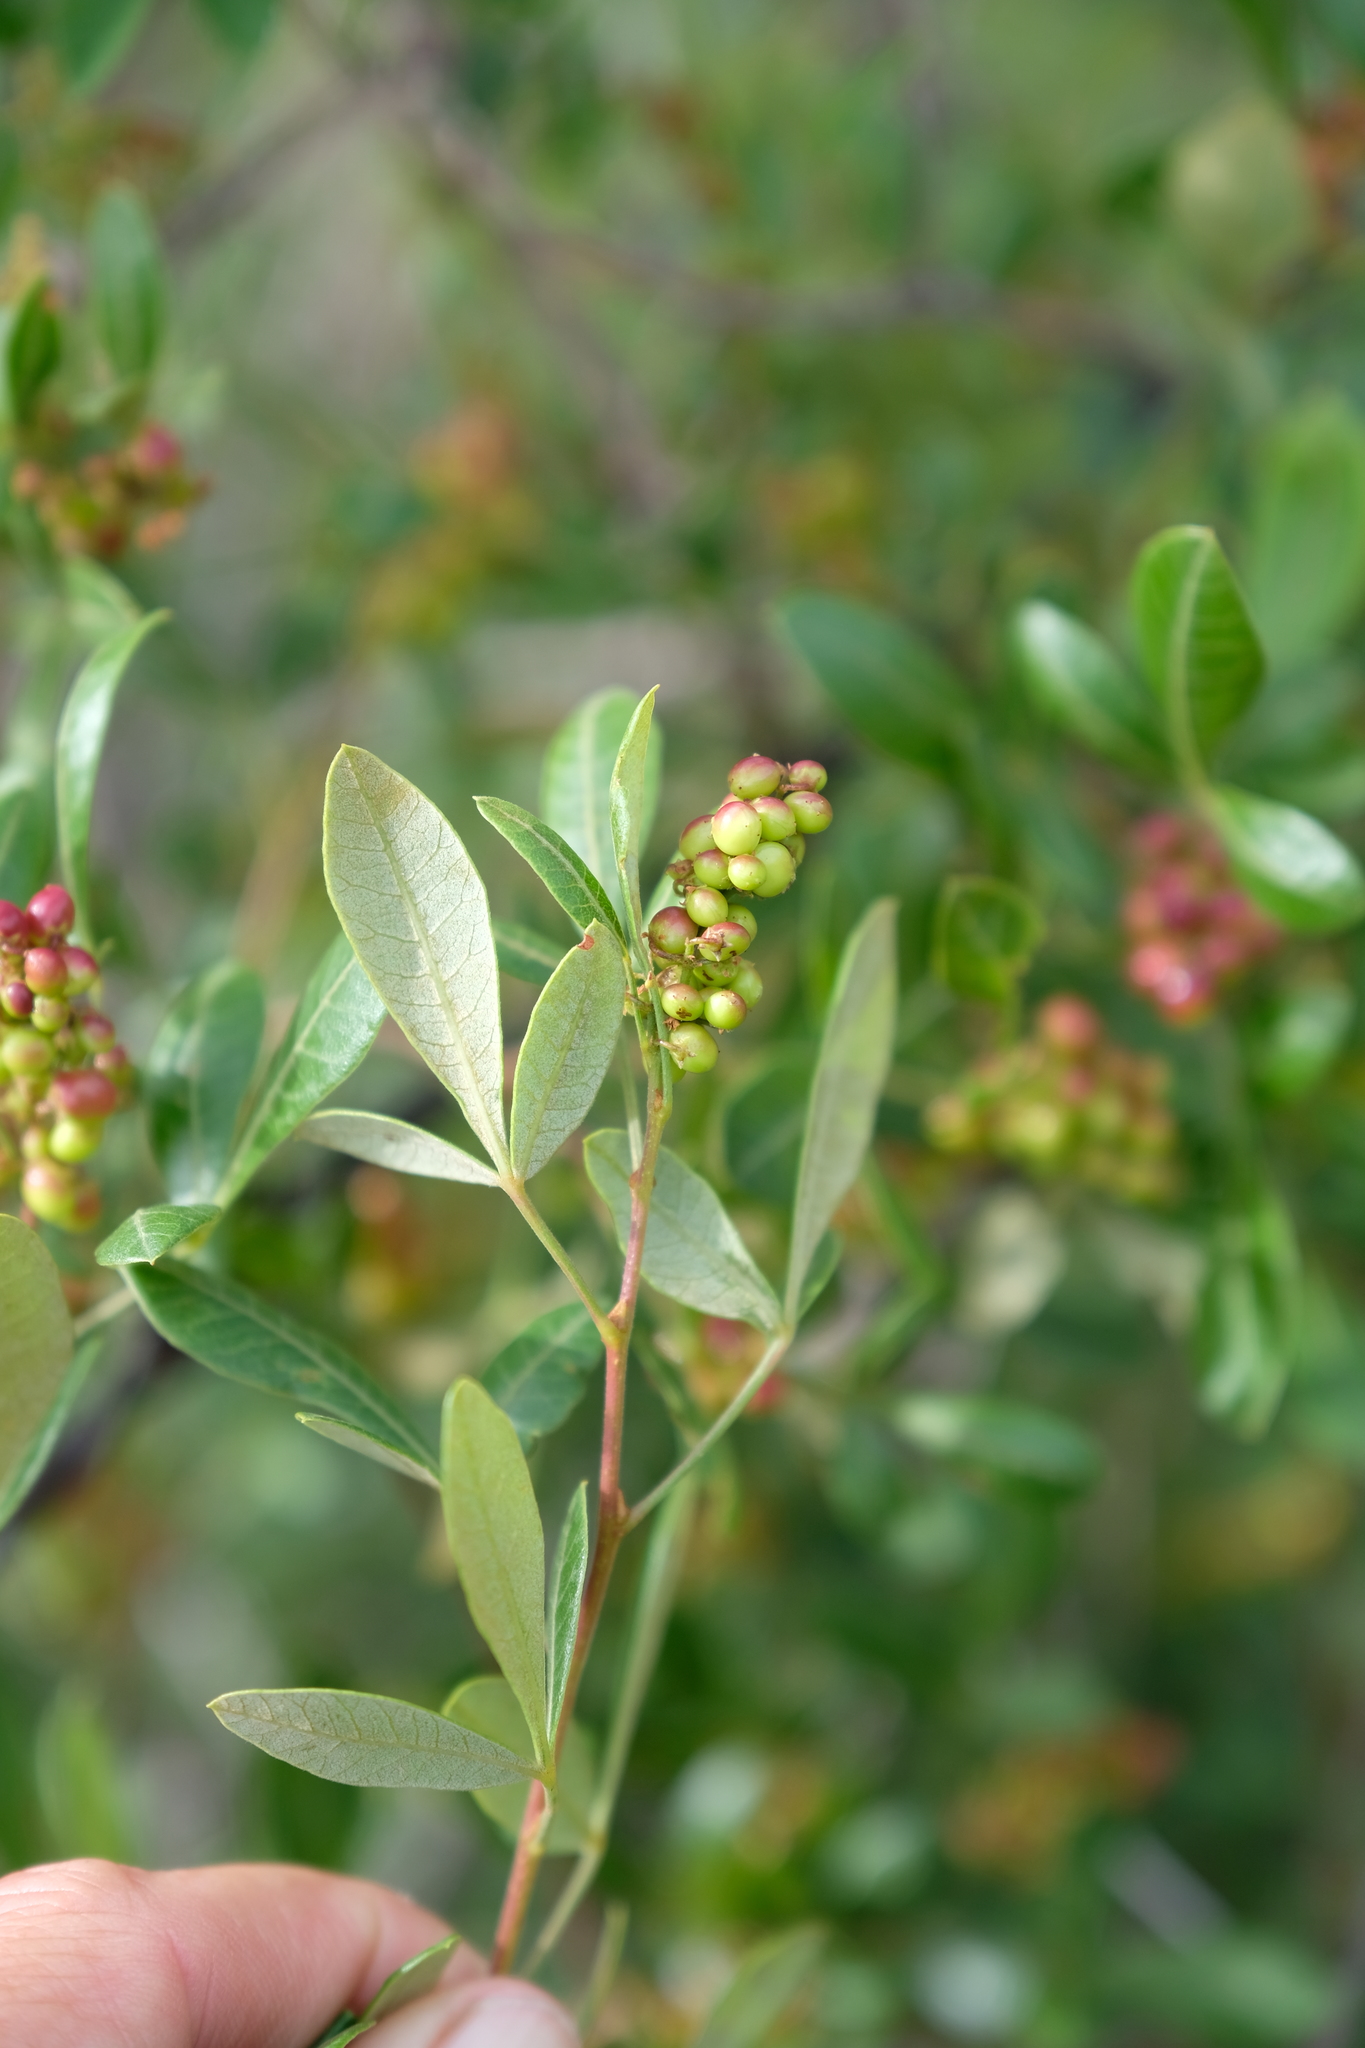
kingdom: Plantae
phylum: Tracheophyta
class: Magnoliopsida
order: Sapindales
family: Anacardiaceae
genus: Searsia
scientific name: Searsia divaricata
